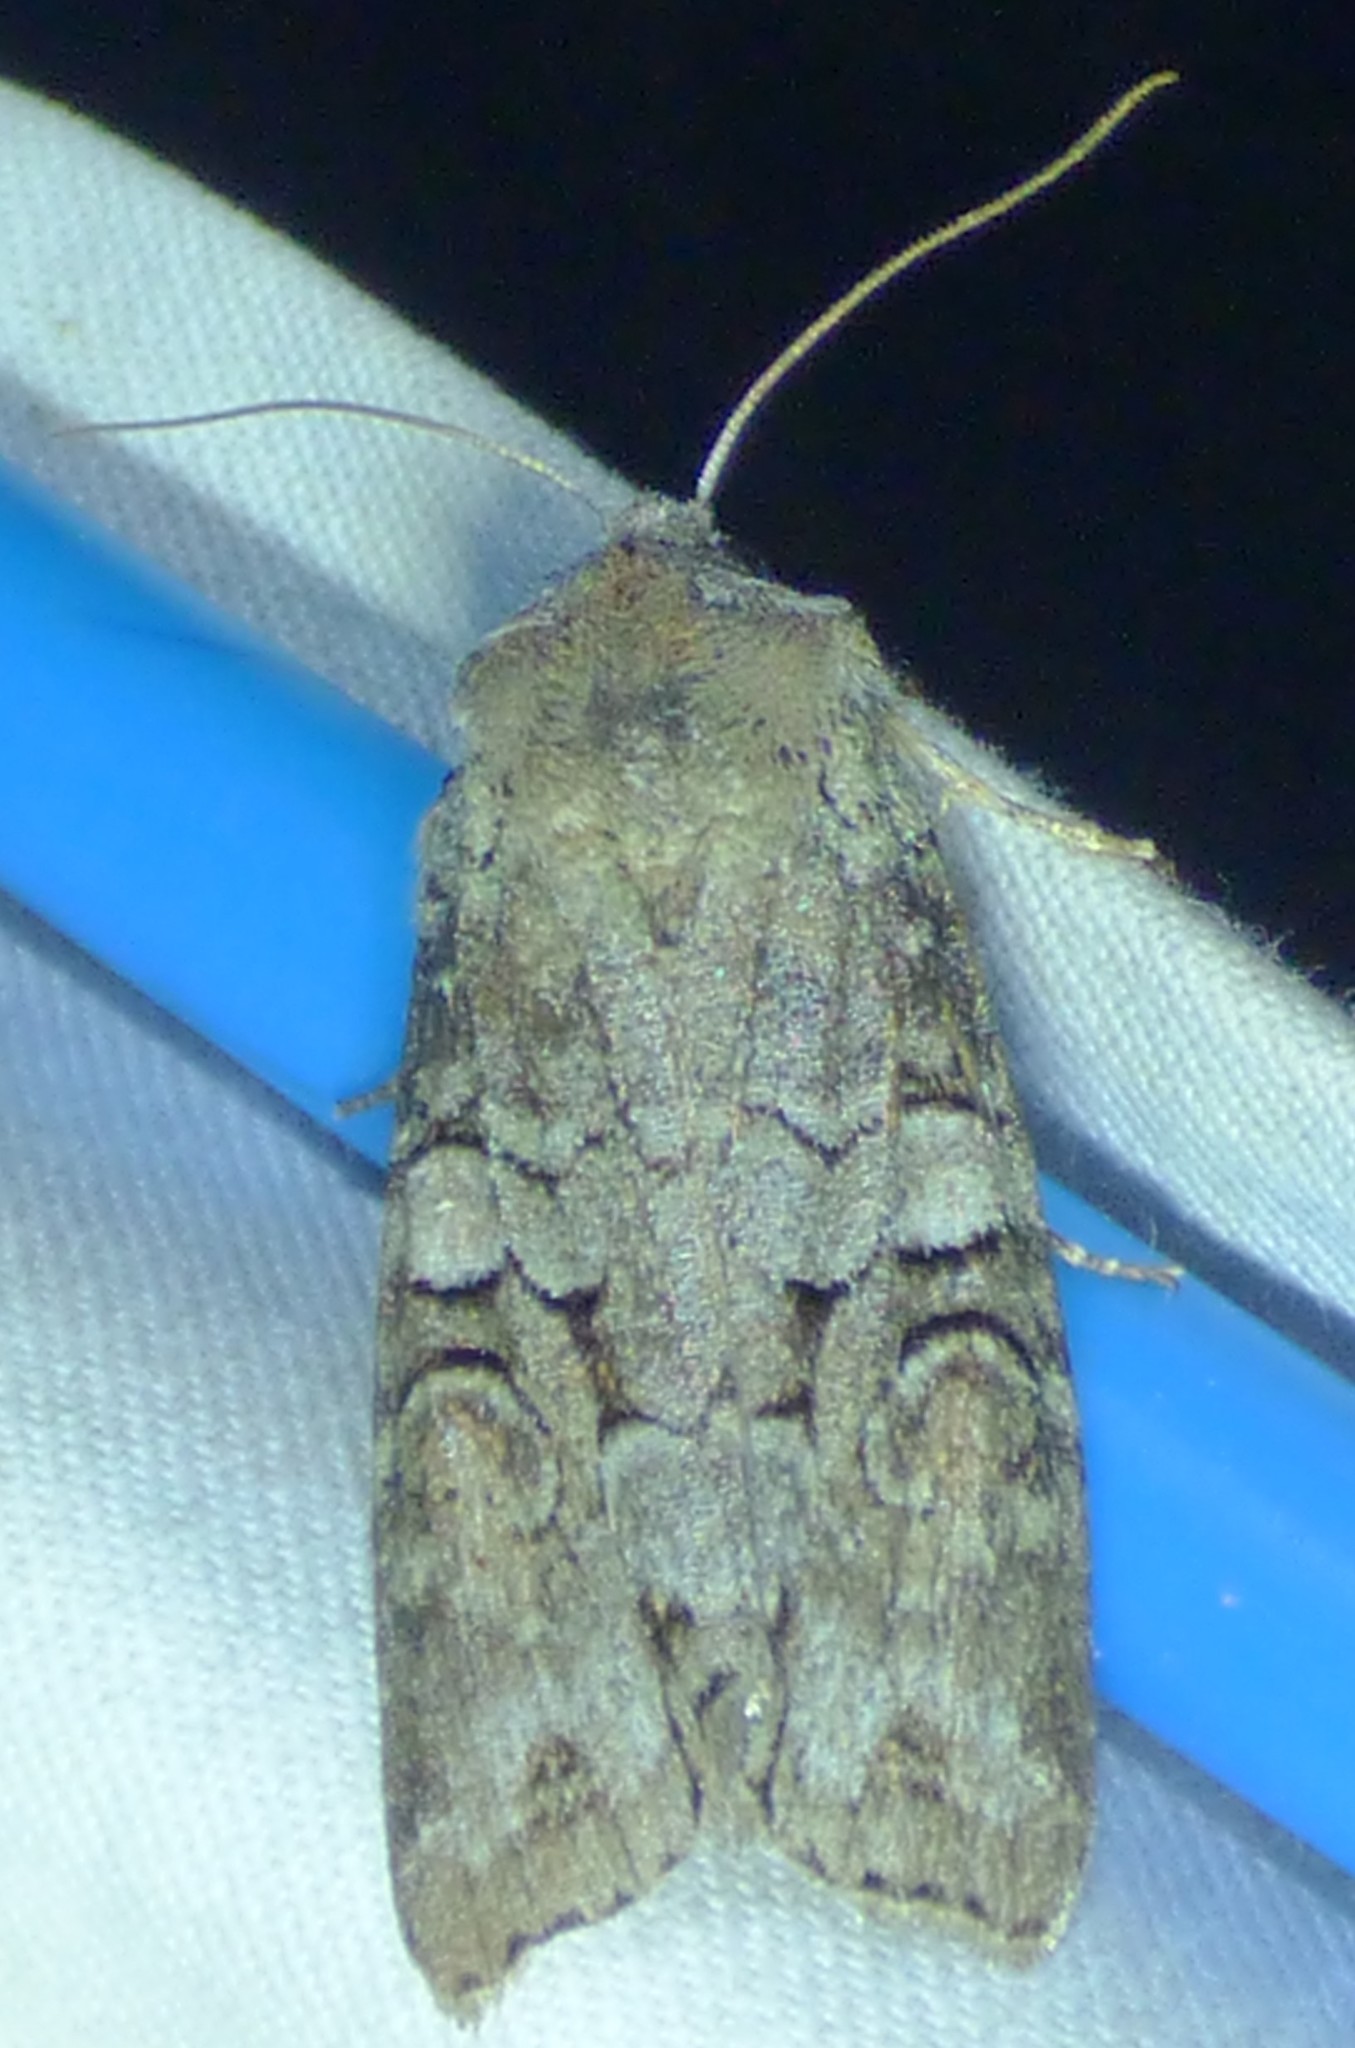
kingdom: Animalia
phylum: Arthropoda
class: Insecta
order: Lepidoptera
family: Noctuidae
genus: Egira
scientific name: Egira alternans
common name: Alternate woodling
